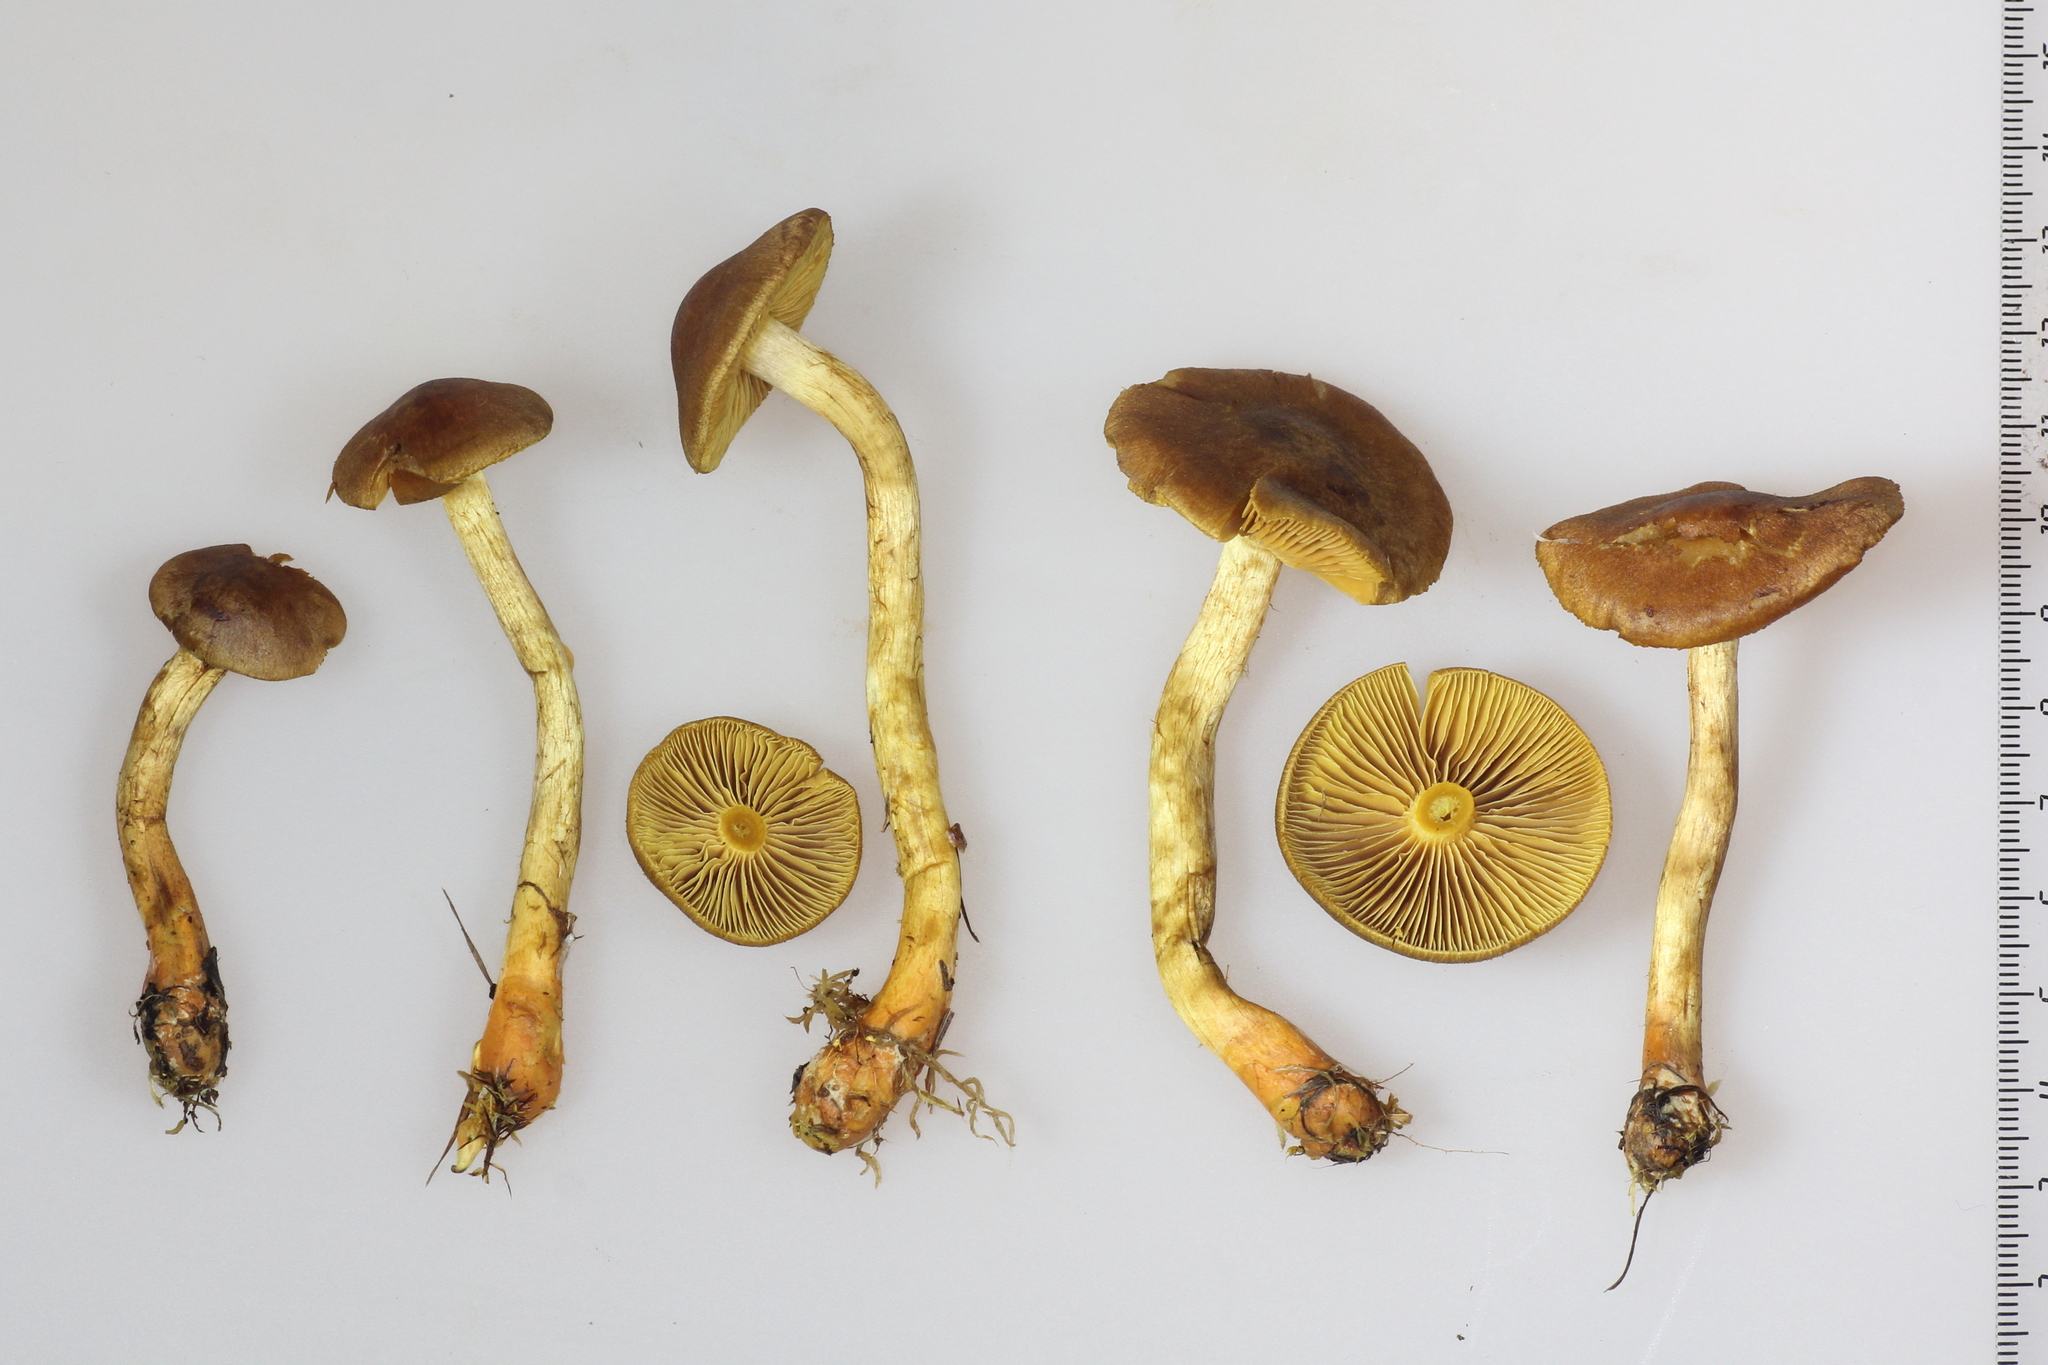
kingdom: Fungi
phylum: Basidiomycota
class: Agaricomycetes
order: Agaricales
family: Cortinariaceae
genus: Cortinarius
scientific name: Cortinarius bataillei
